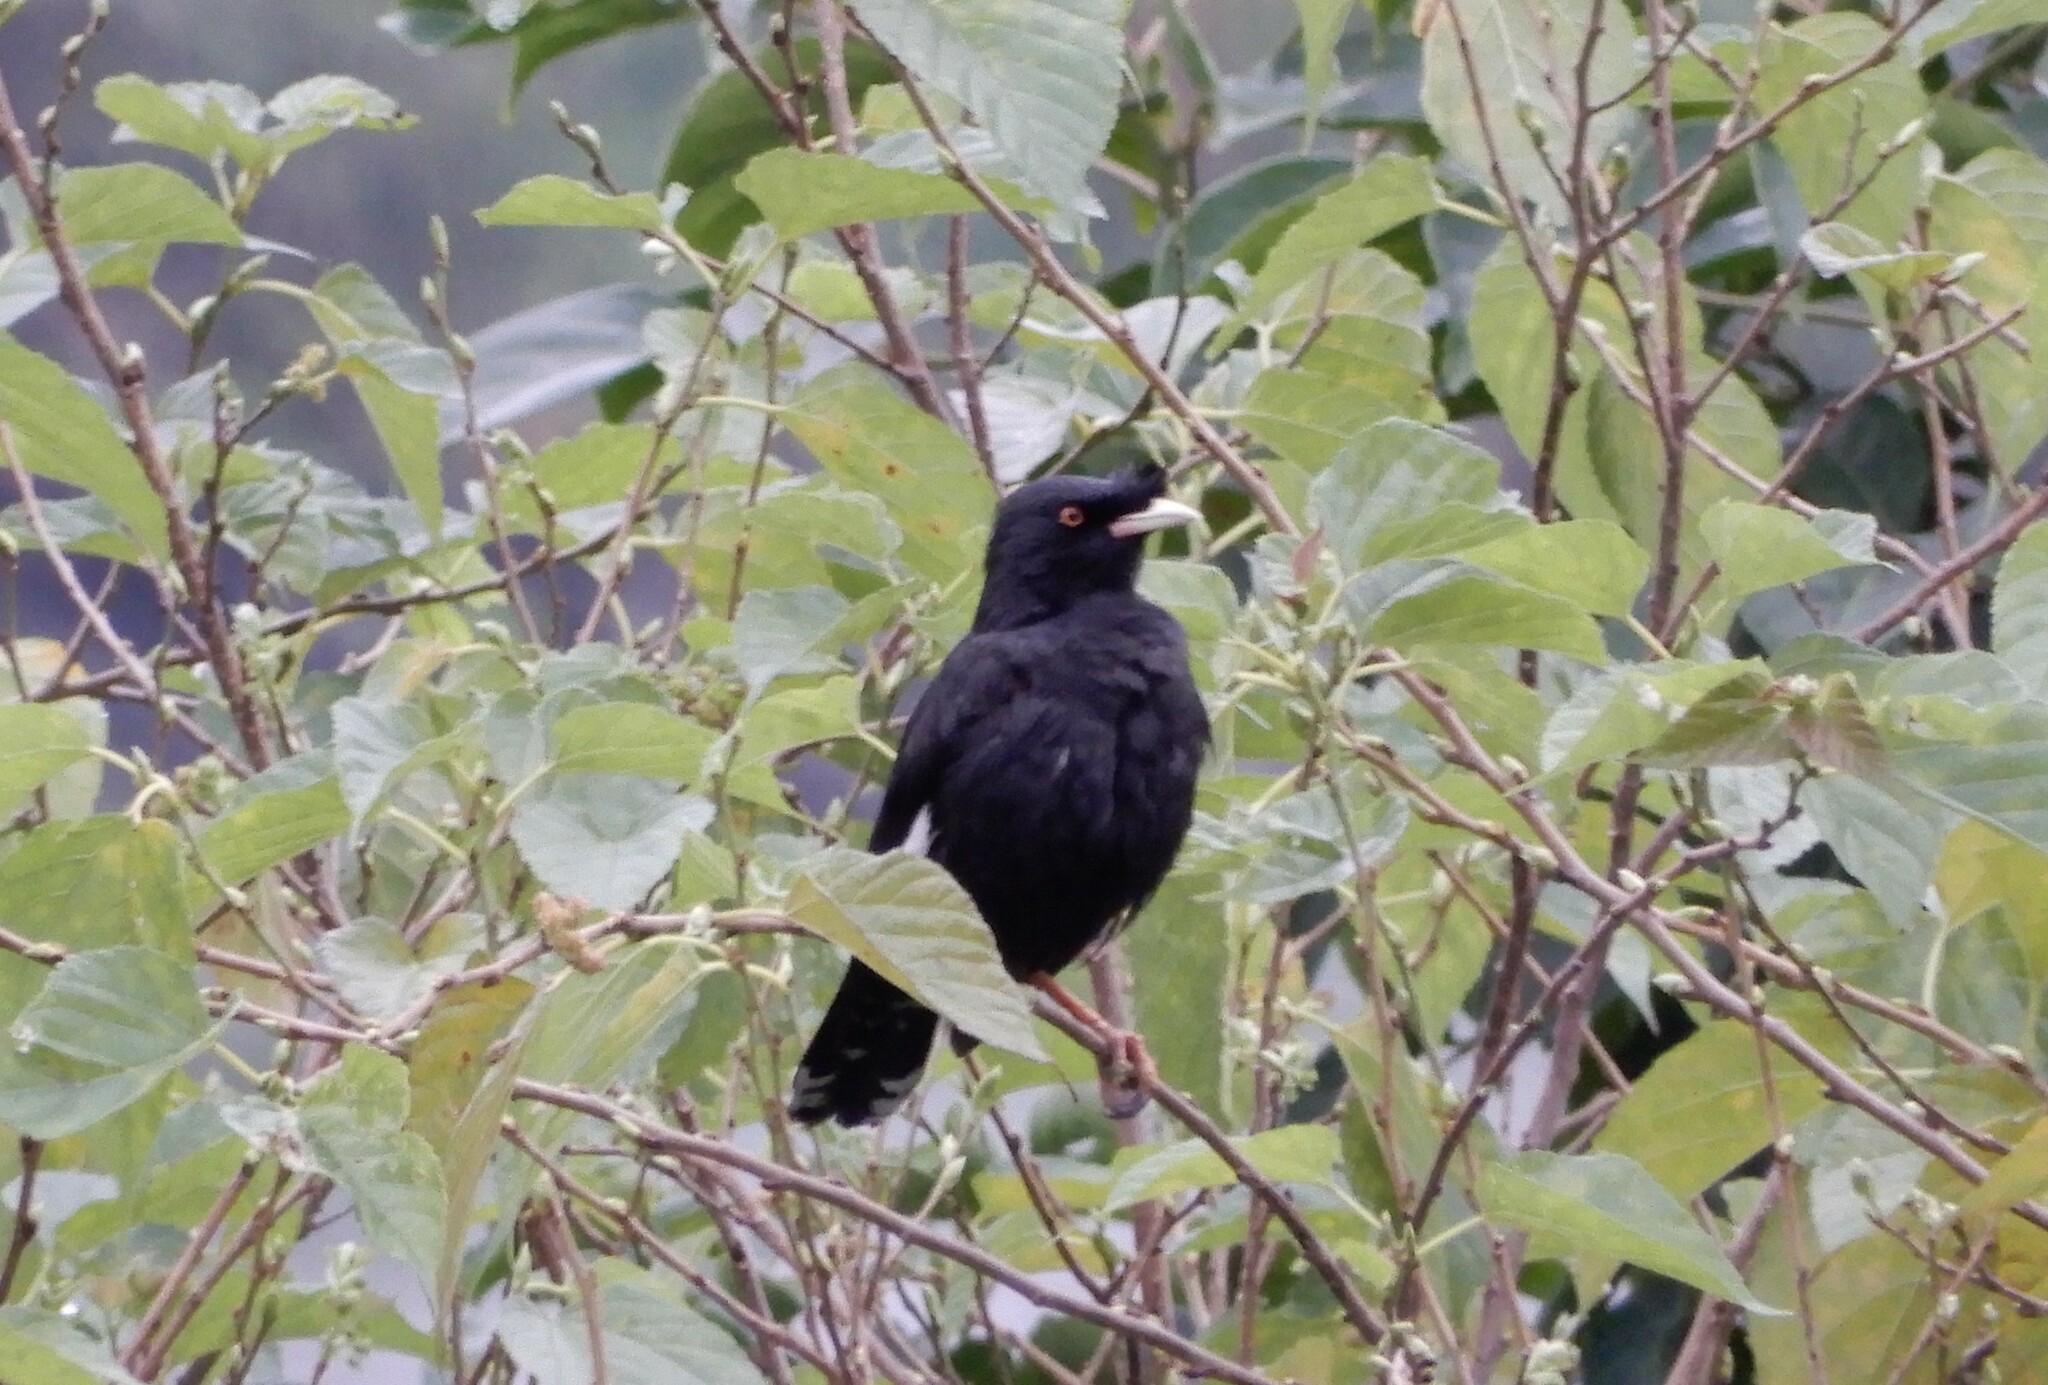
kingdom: Animalia
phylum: Chordata
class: Aves
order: Passeriformes
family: Sturnidae
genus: Acridotheres
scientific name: Acridotheres cristatellus
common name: Crested myna
